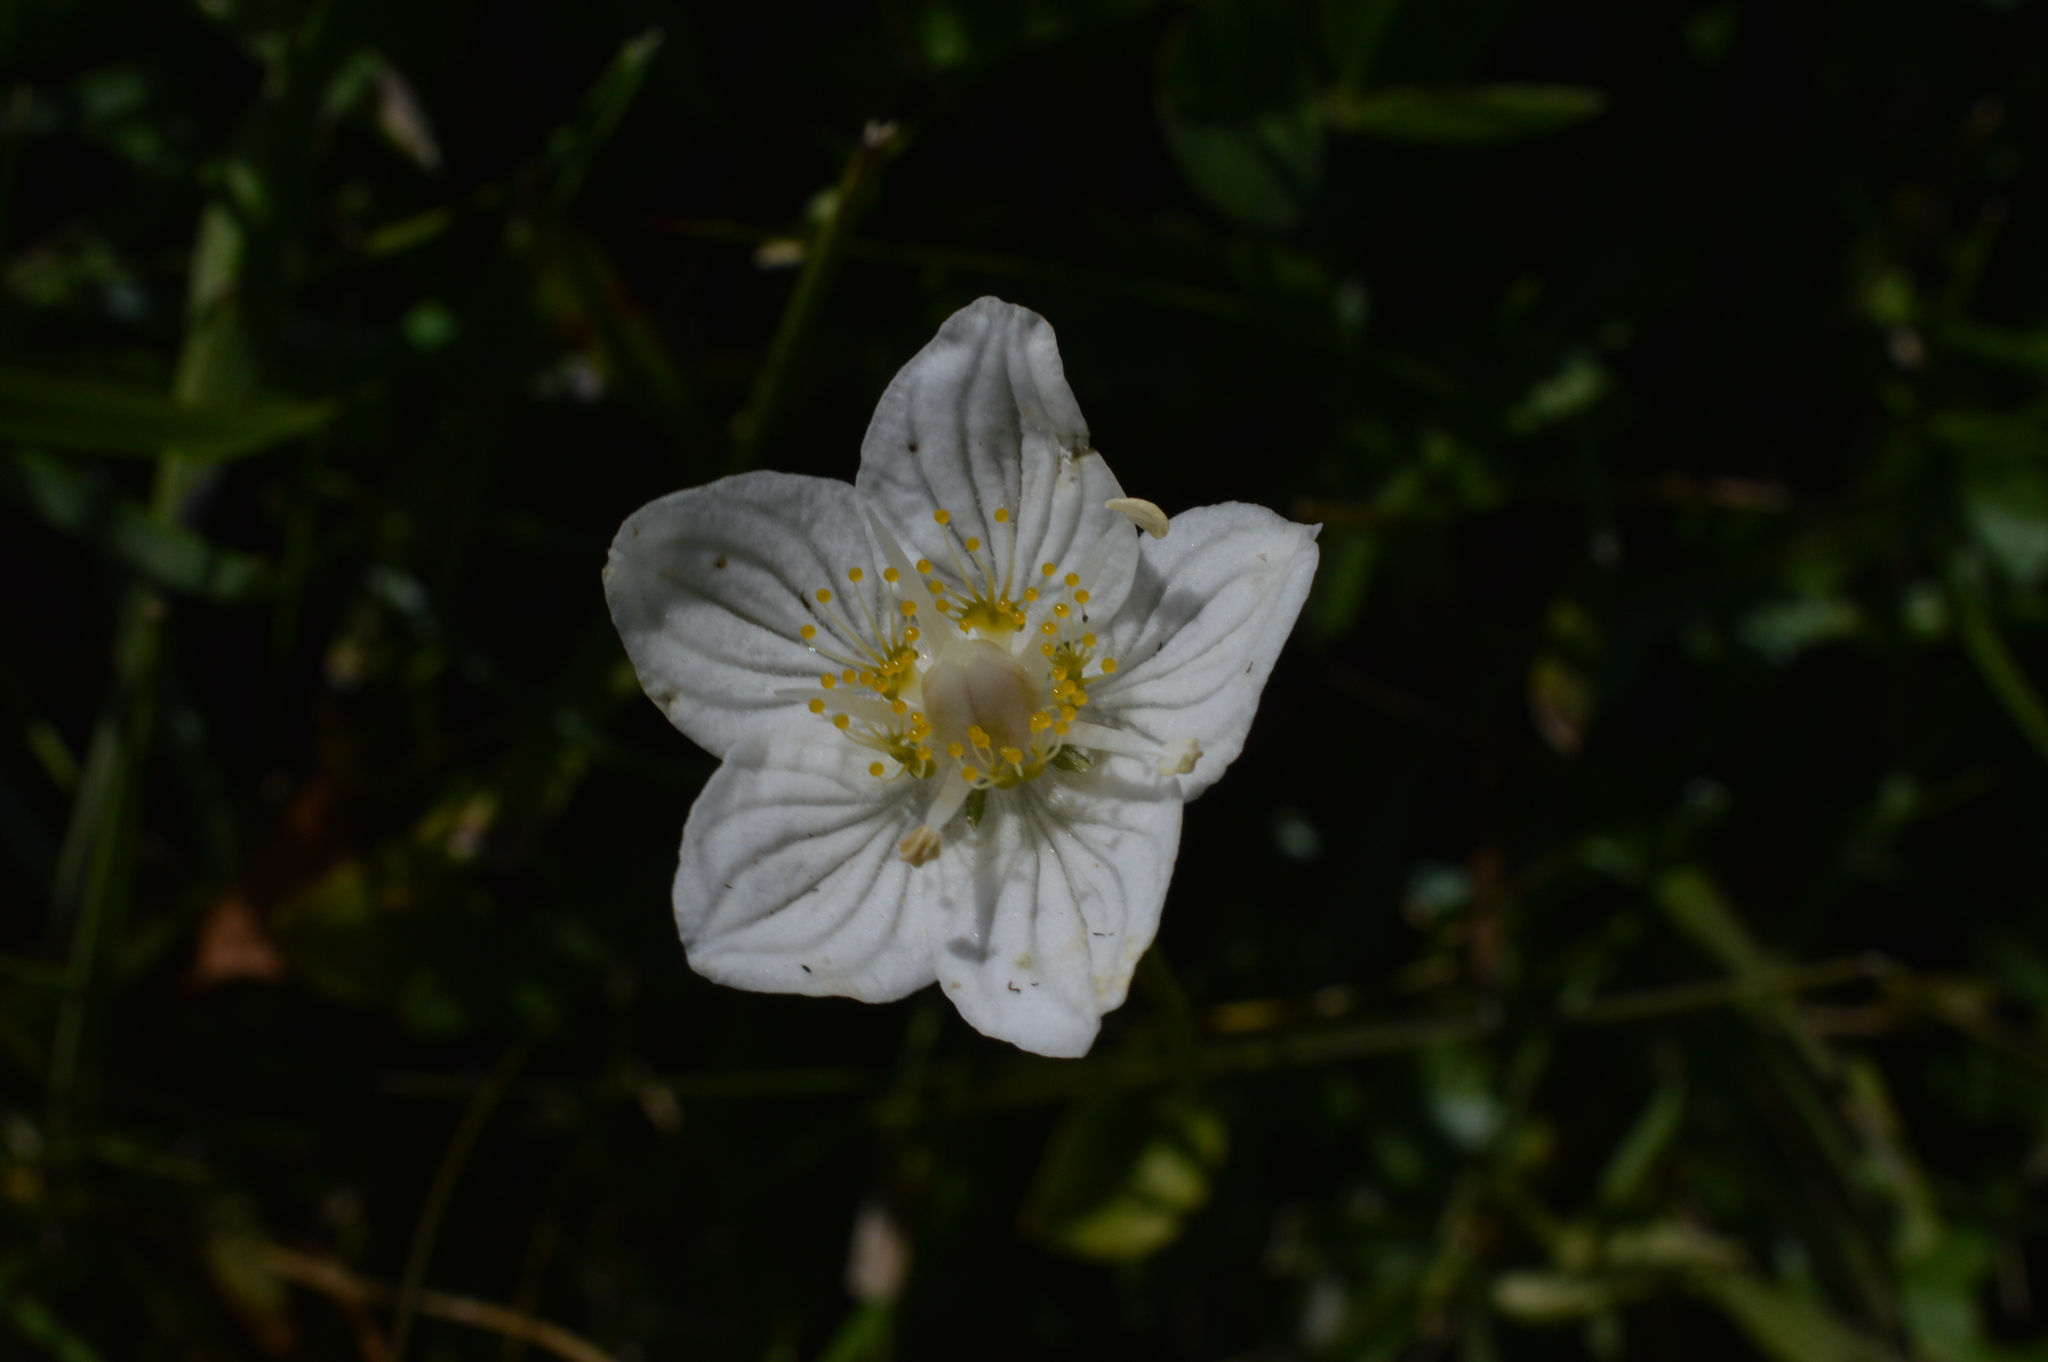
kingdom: Plantae
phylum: Tracheophyta
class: Magnoliopsida
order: Celastrales
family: Parnassiaceae
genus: Parnassia
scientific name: Parnassia palustris
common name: Grass-of-parnassus
